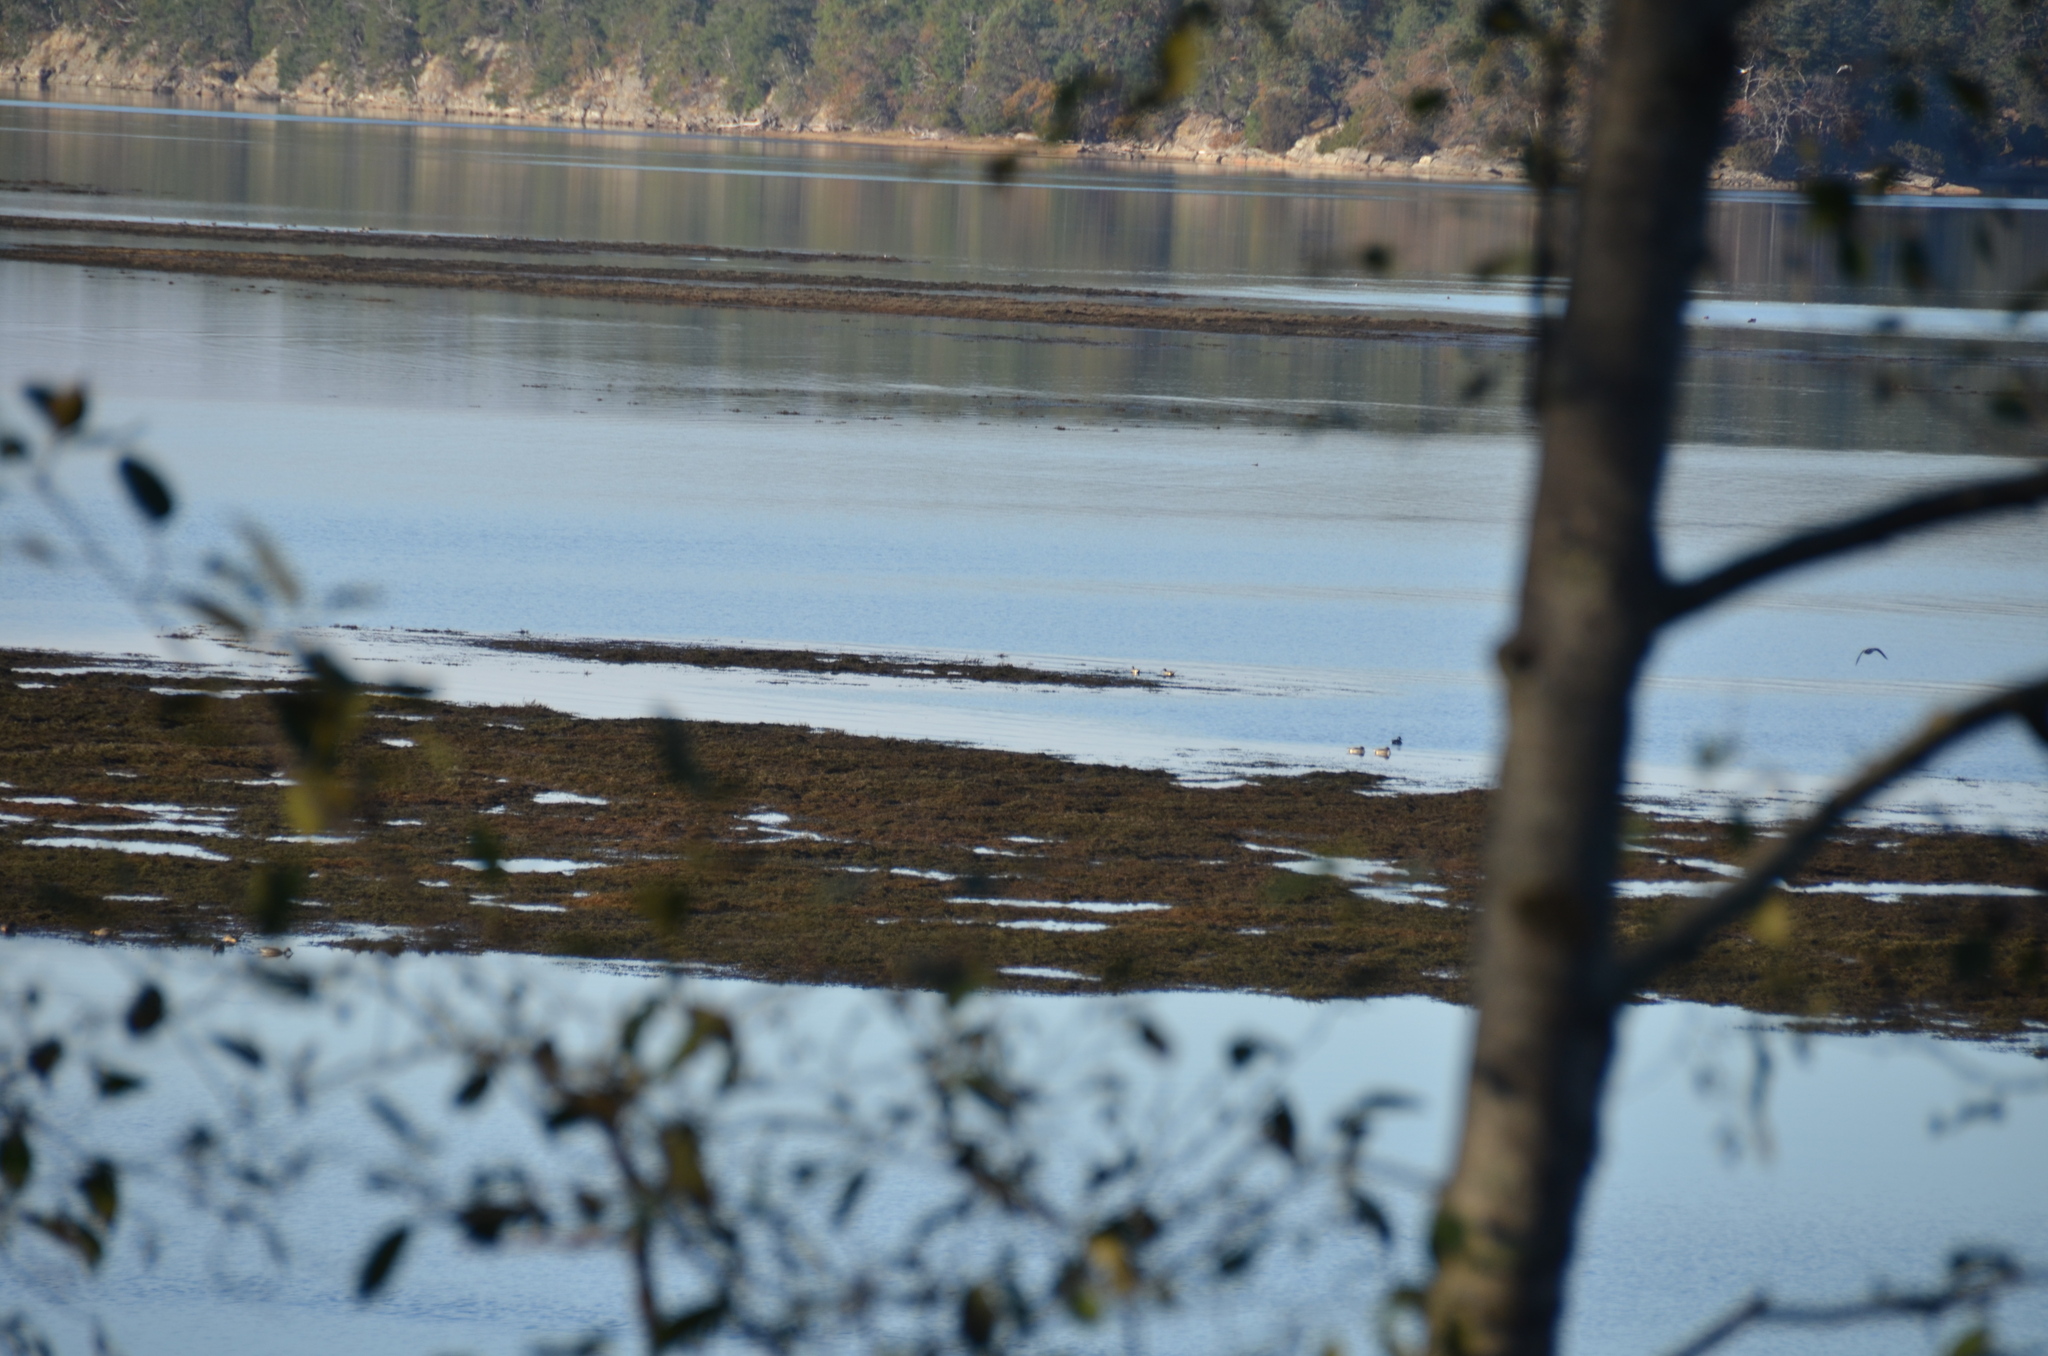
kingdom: Animalia
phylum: Chordata
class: Aves
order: Anseriformes
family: Anatidae
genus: Anas
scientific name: Anas platyrhynchos
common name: Mallard
